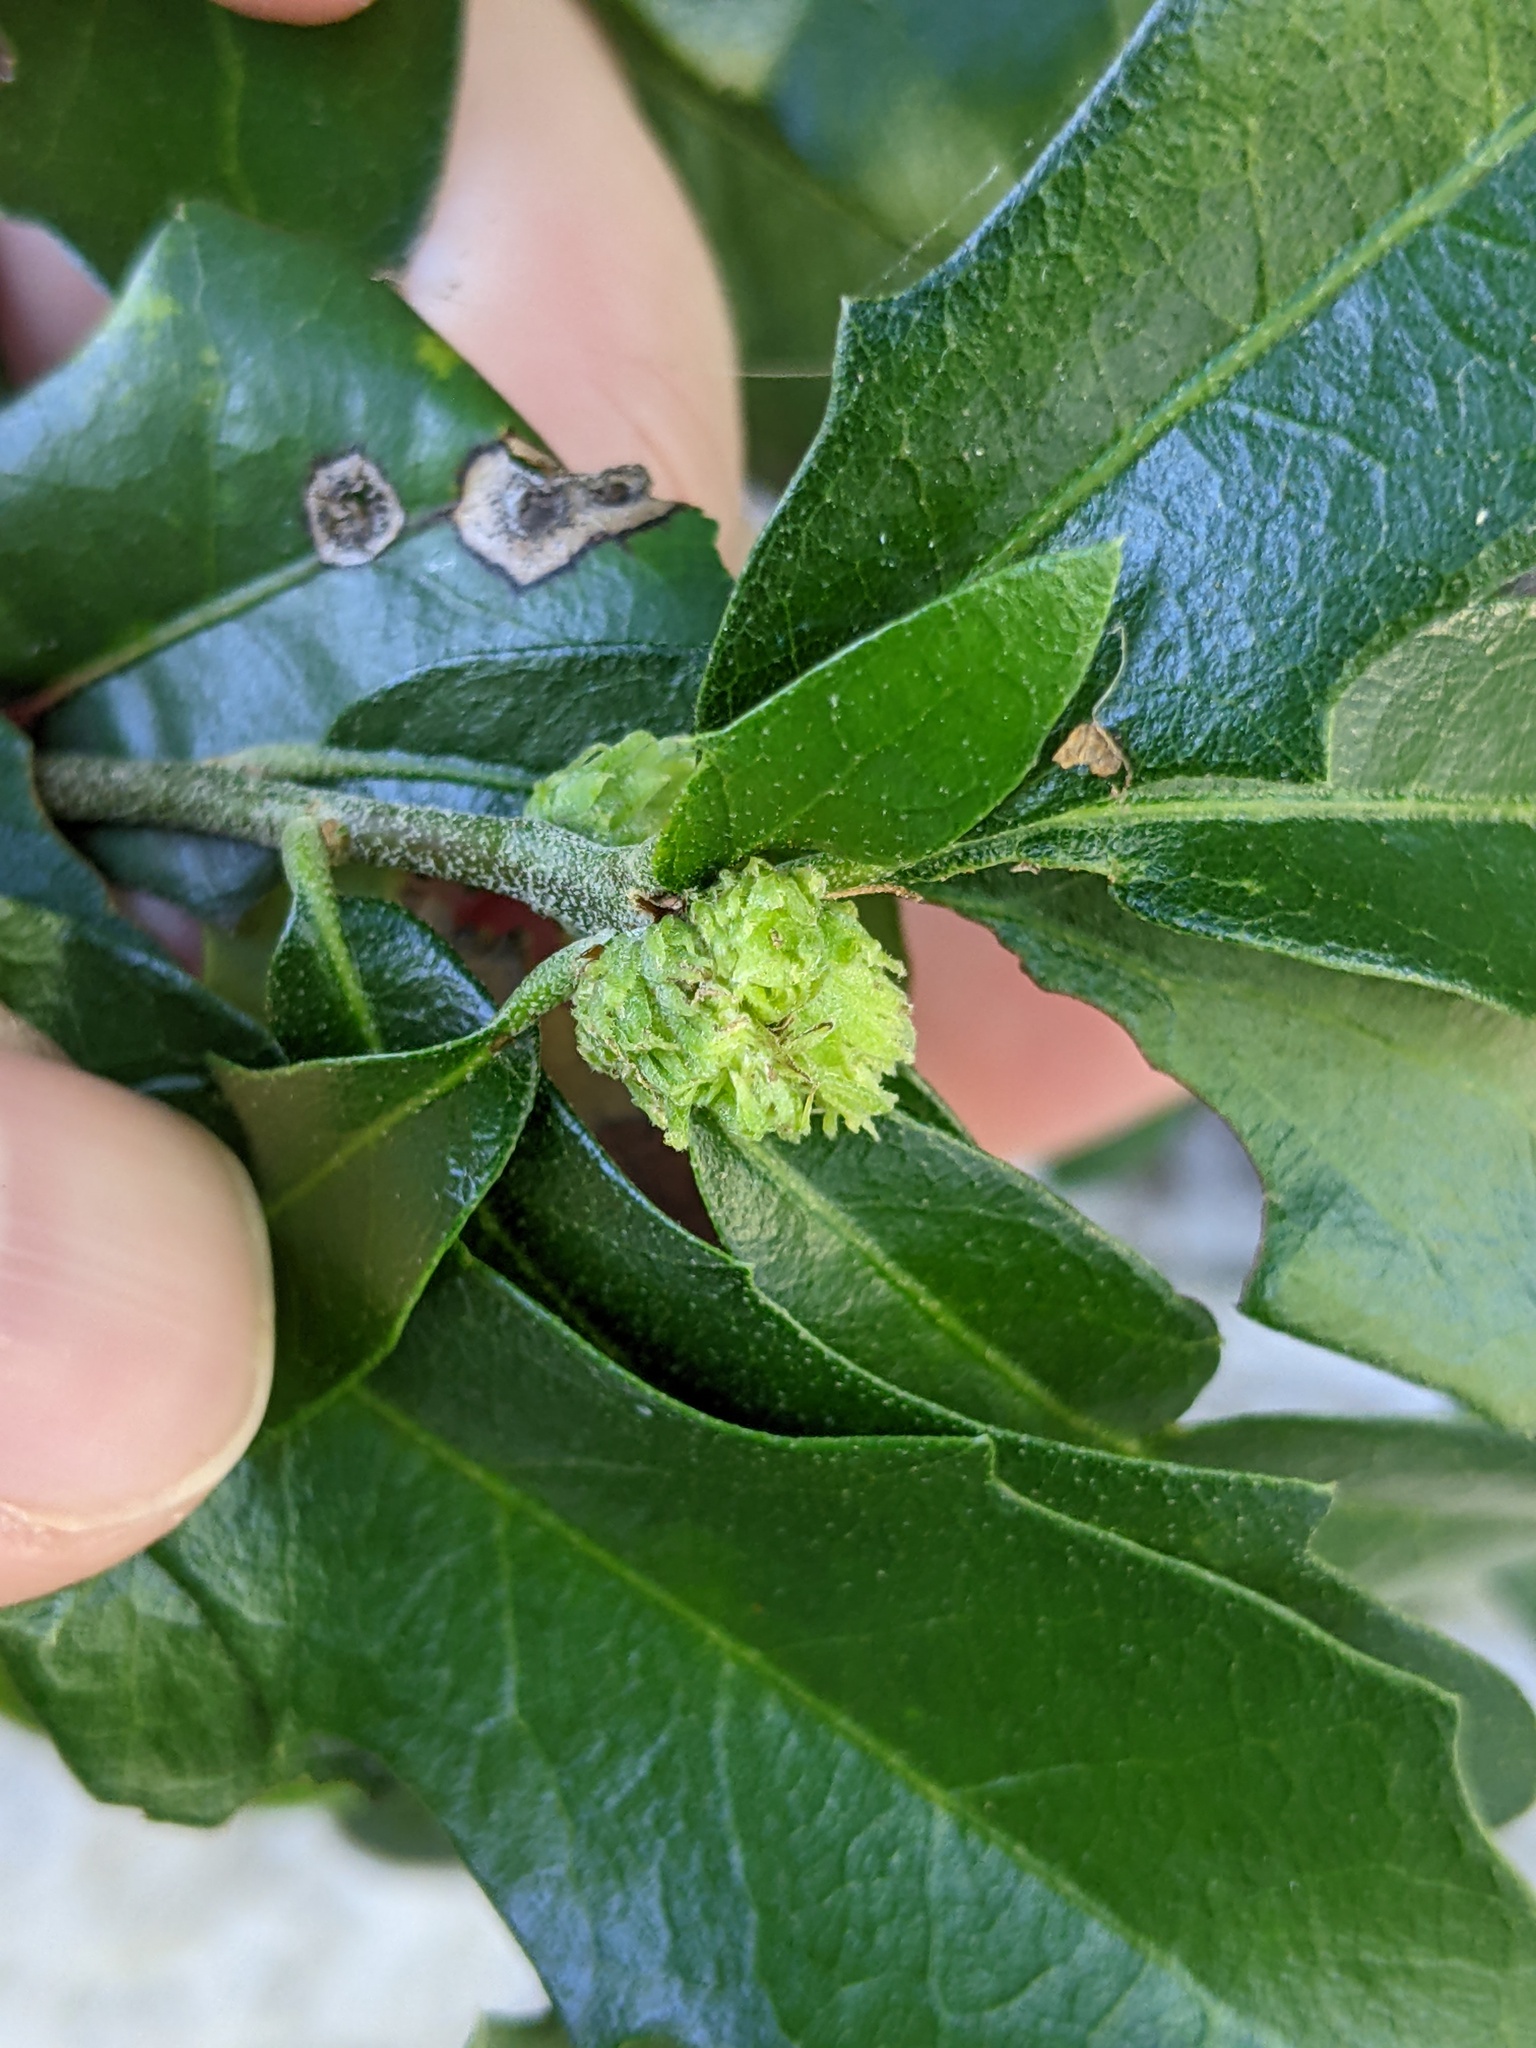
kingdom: Animalia
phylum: Arthropoda
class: Insecta
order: Hymenoptera
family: Cynipidae
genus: Andricus
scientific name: Andricus quercusfoliatus
